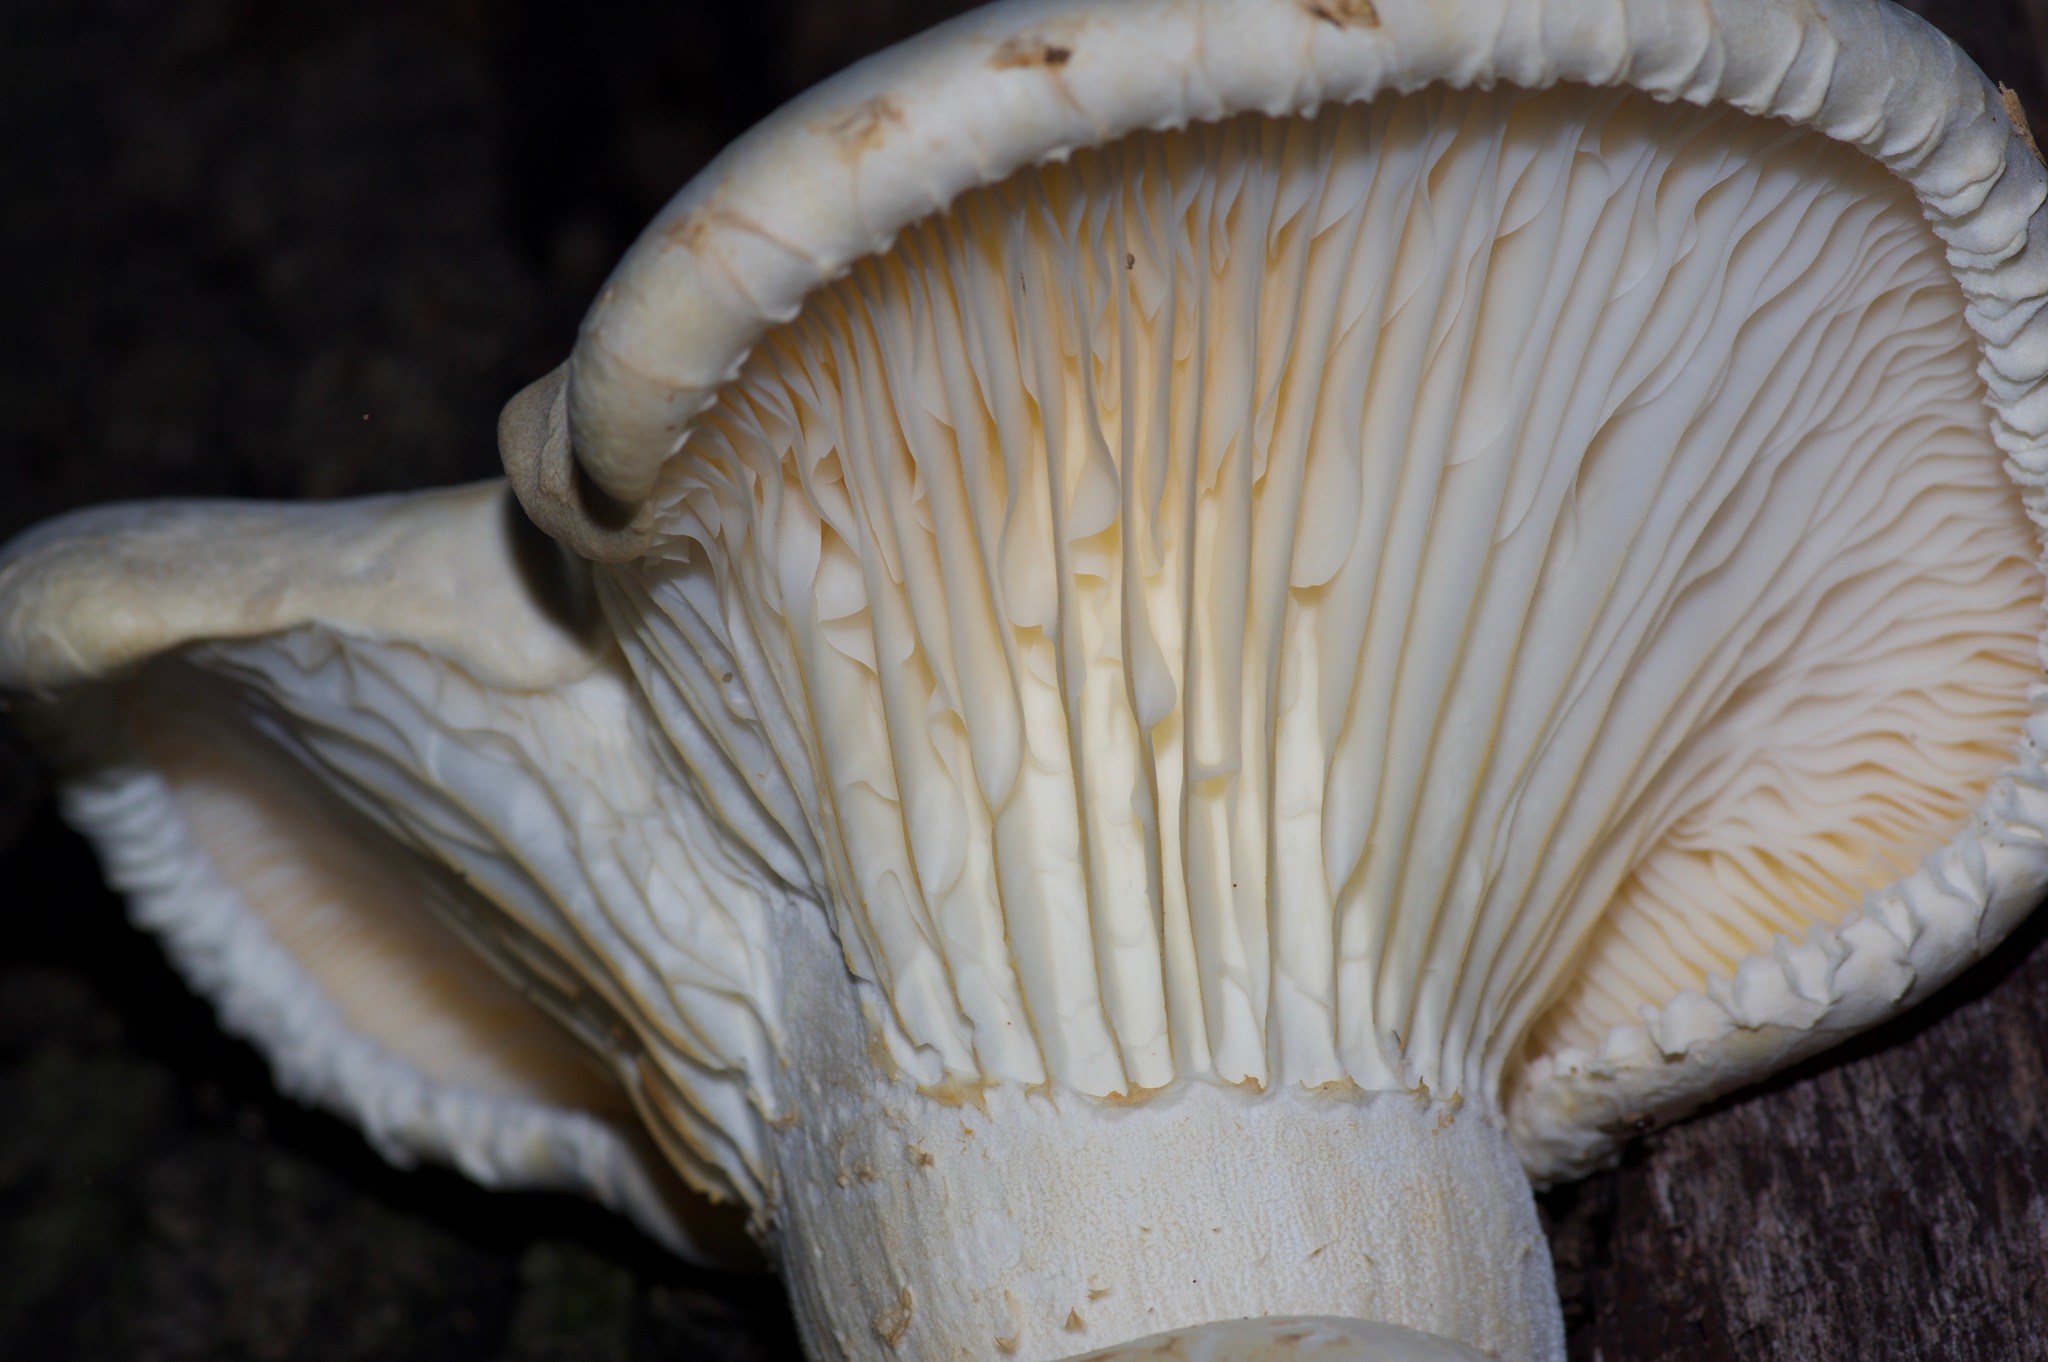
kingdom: Fungi
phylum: Basidiomycota
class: Agaricomycetes
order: Polyporales
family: Polyporaceae
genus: Lentinus
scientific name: Lentinus levis
